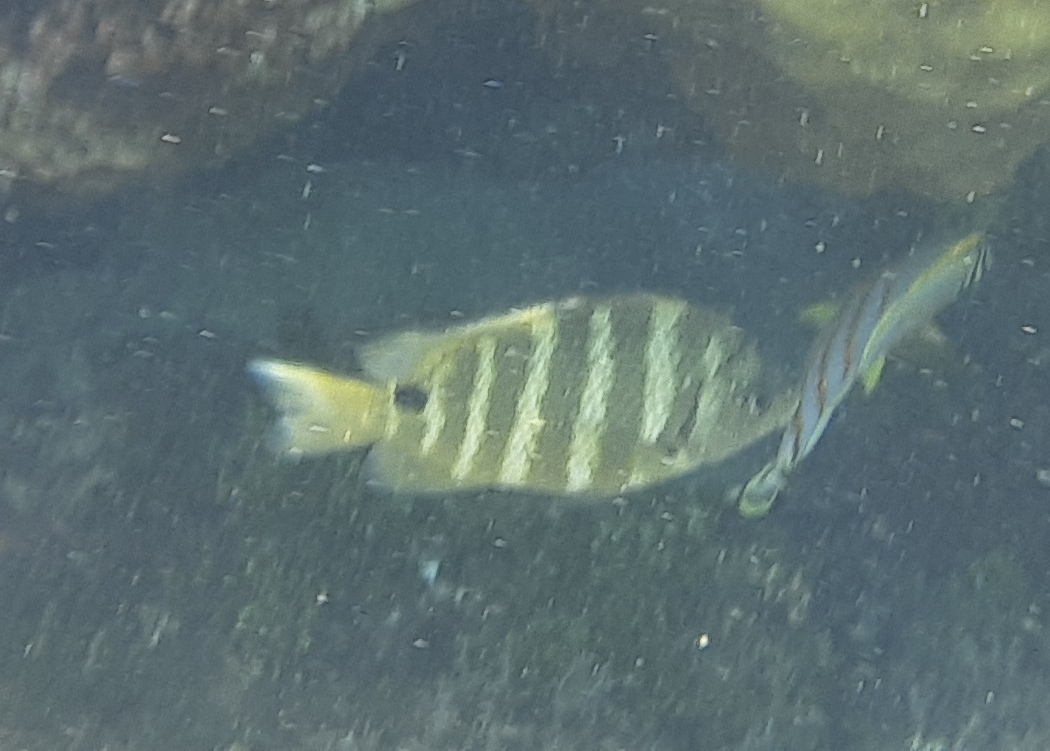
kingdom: Animalia
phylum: Chordata
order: Perciformes
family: Pomacentridae
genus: Abudefduf
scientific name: Abudefduf sordidus
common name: Blackspot sergeant
